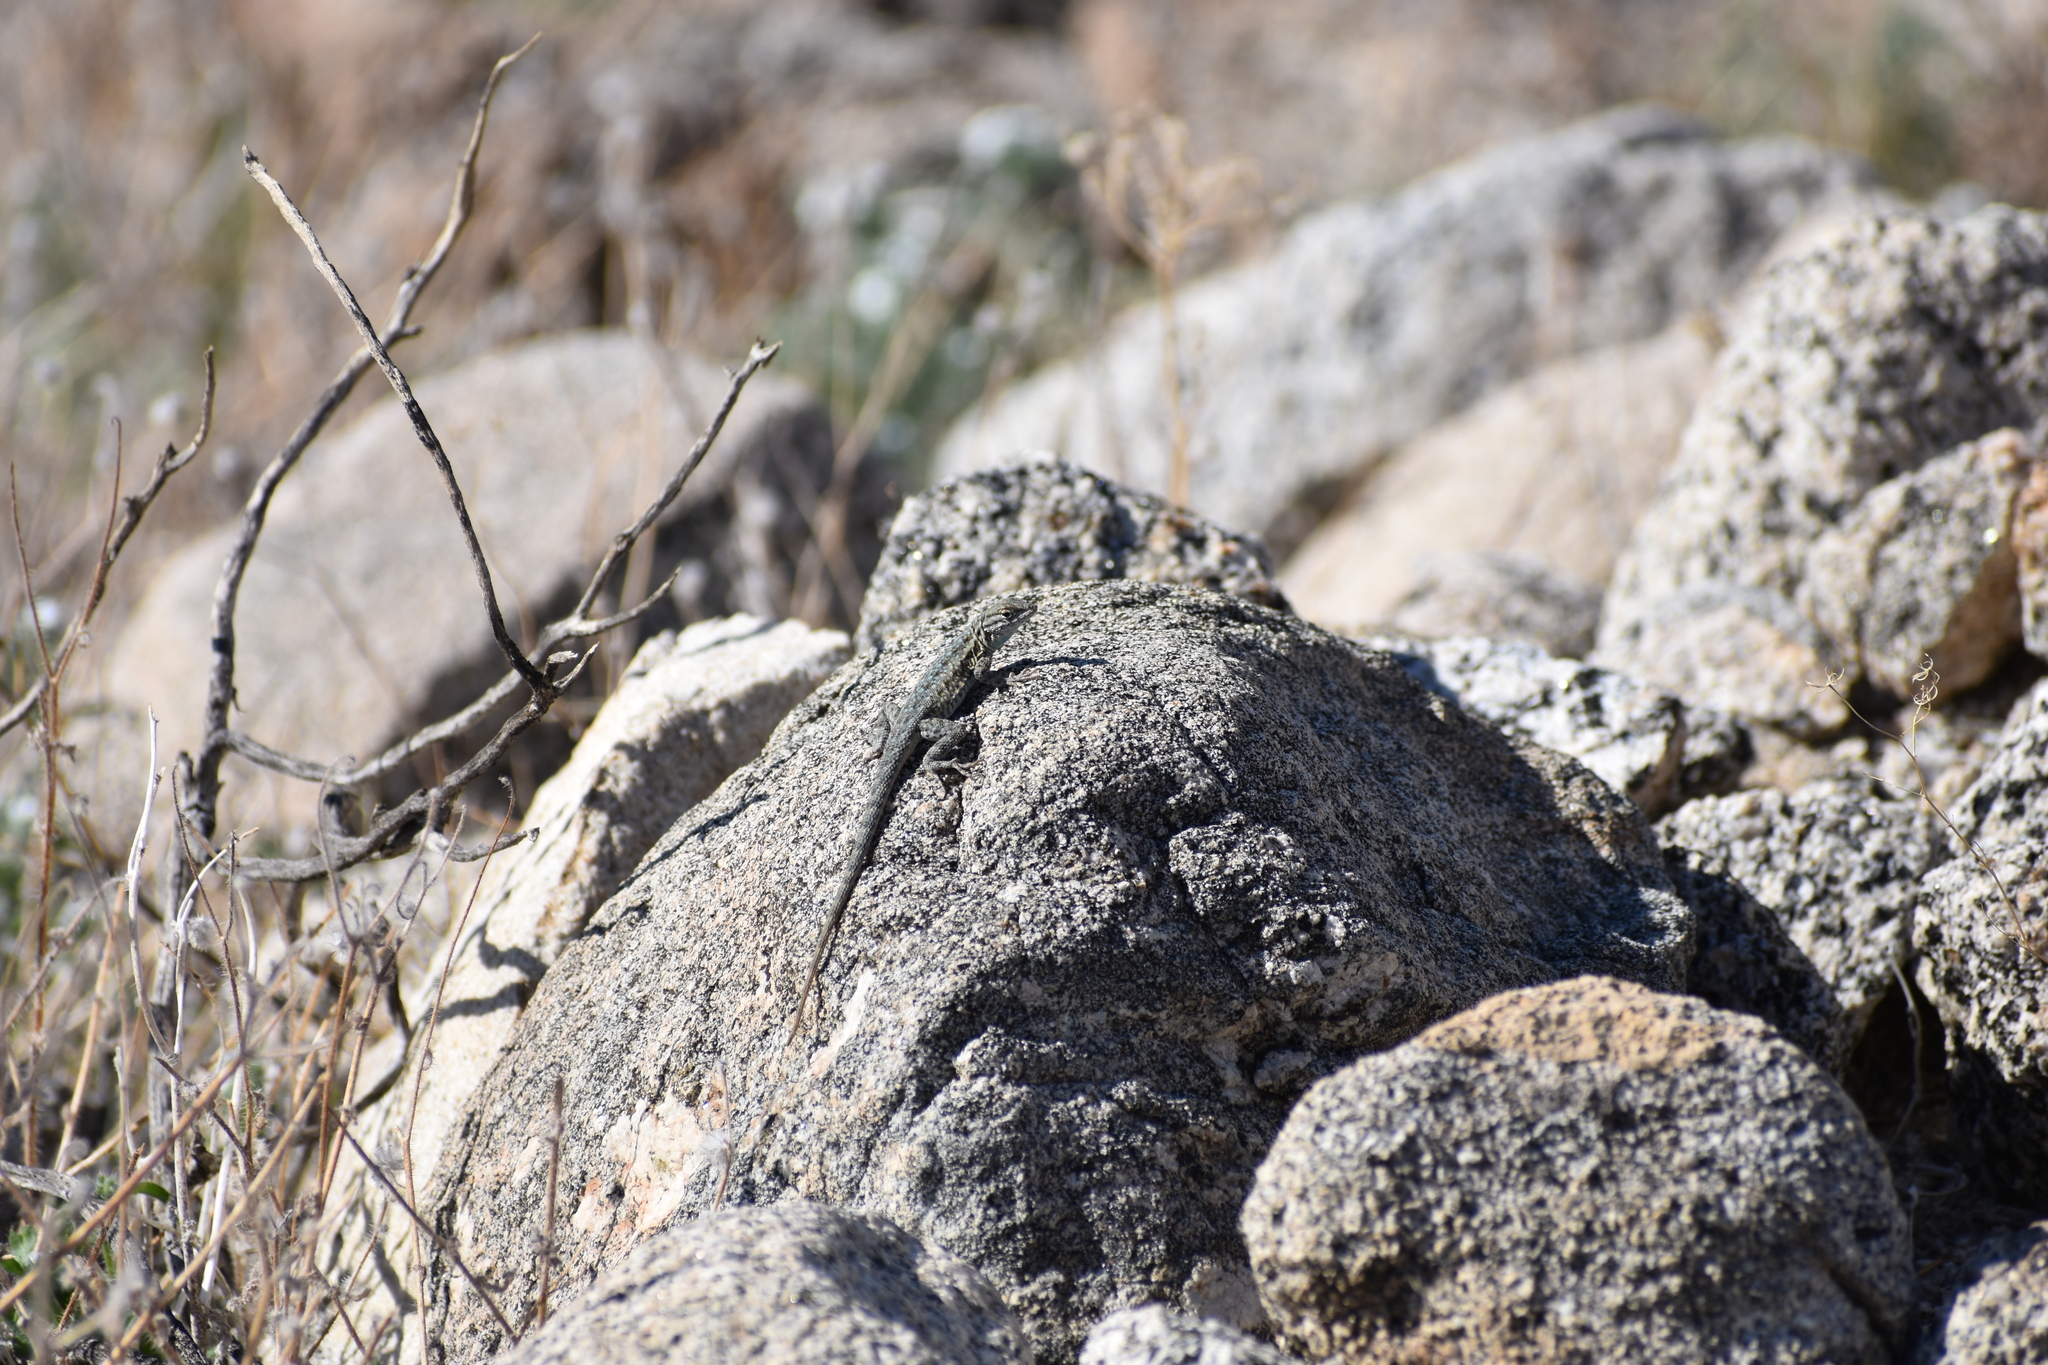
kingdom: Animalia
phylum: Chordata
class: Squamata
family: Phrynosomatidae
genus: Uta
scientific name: Uta stansburiana
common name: Side-blotched lizard
